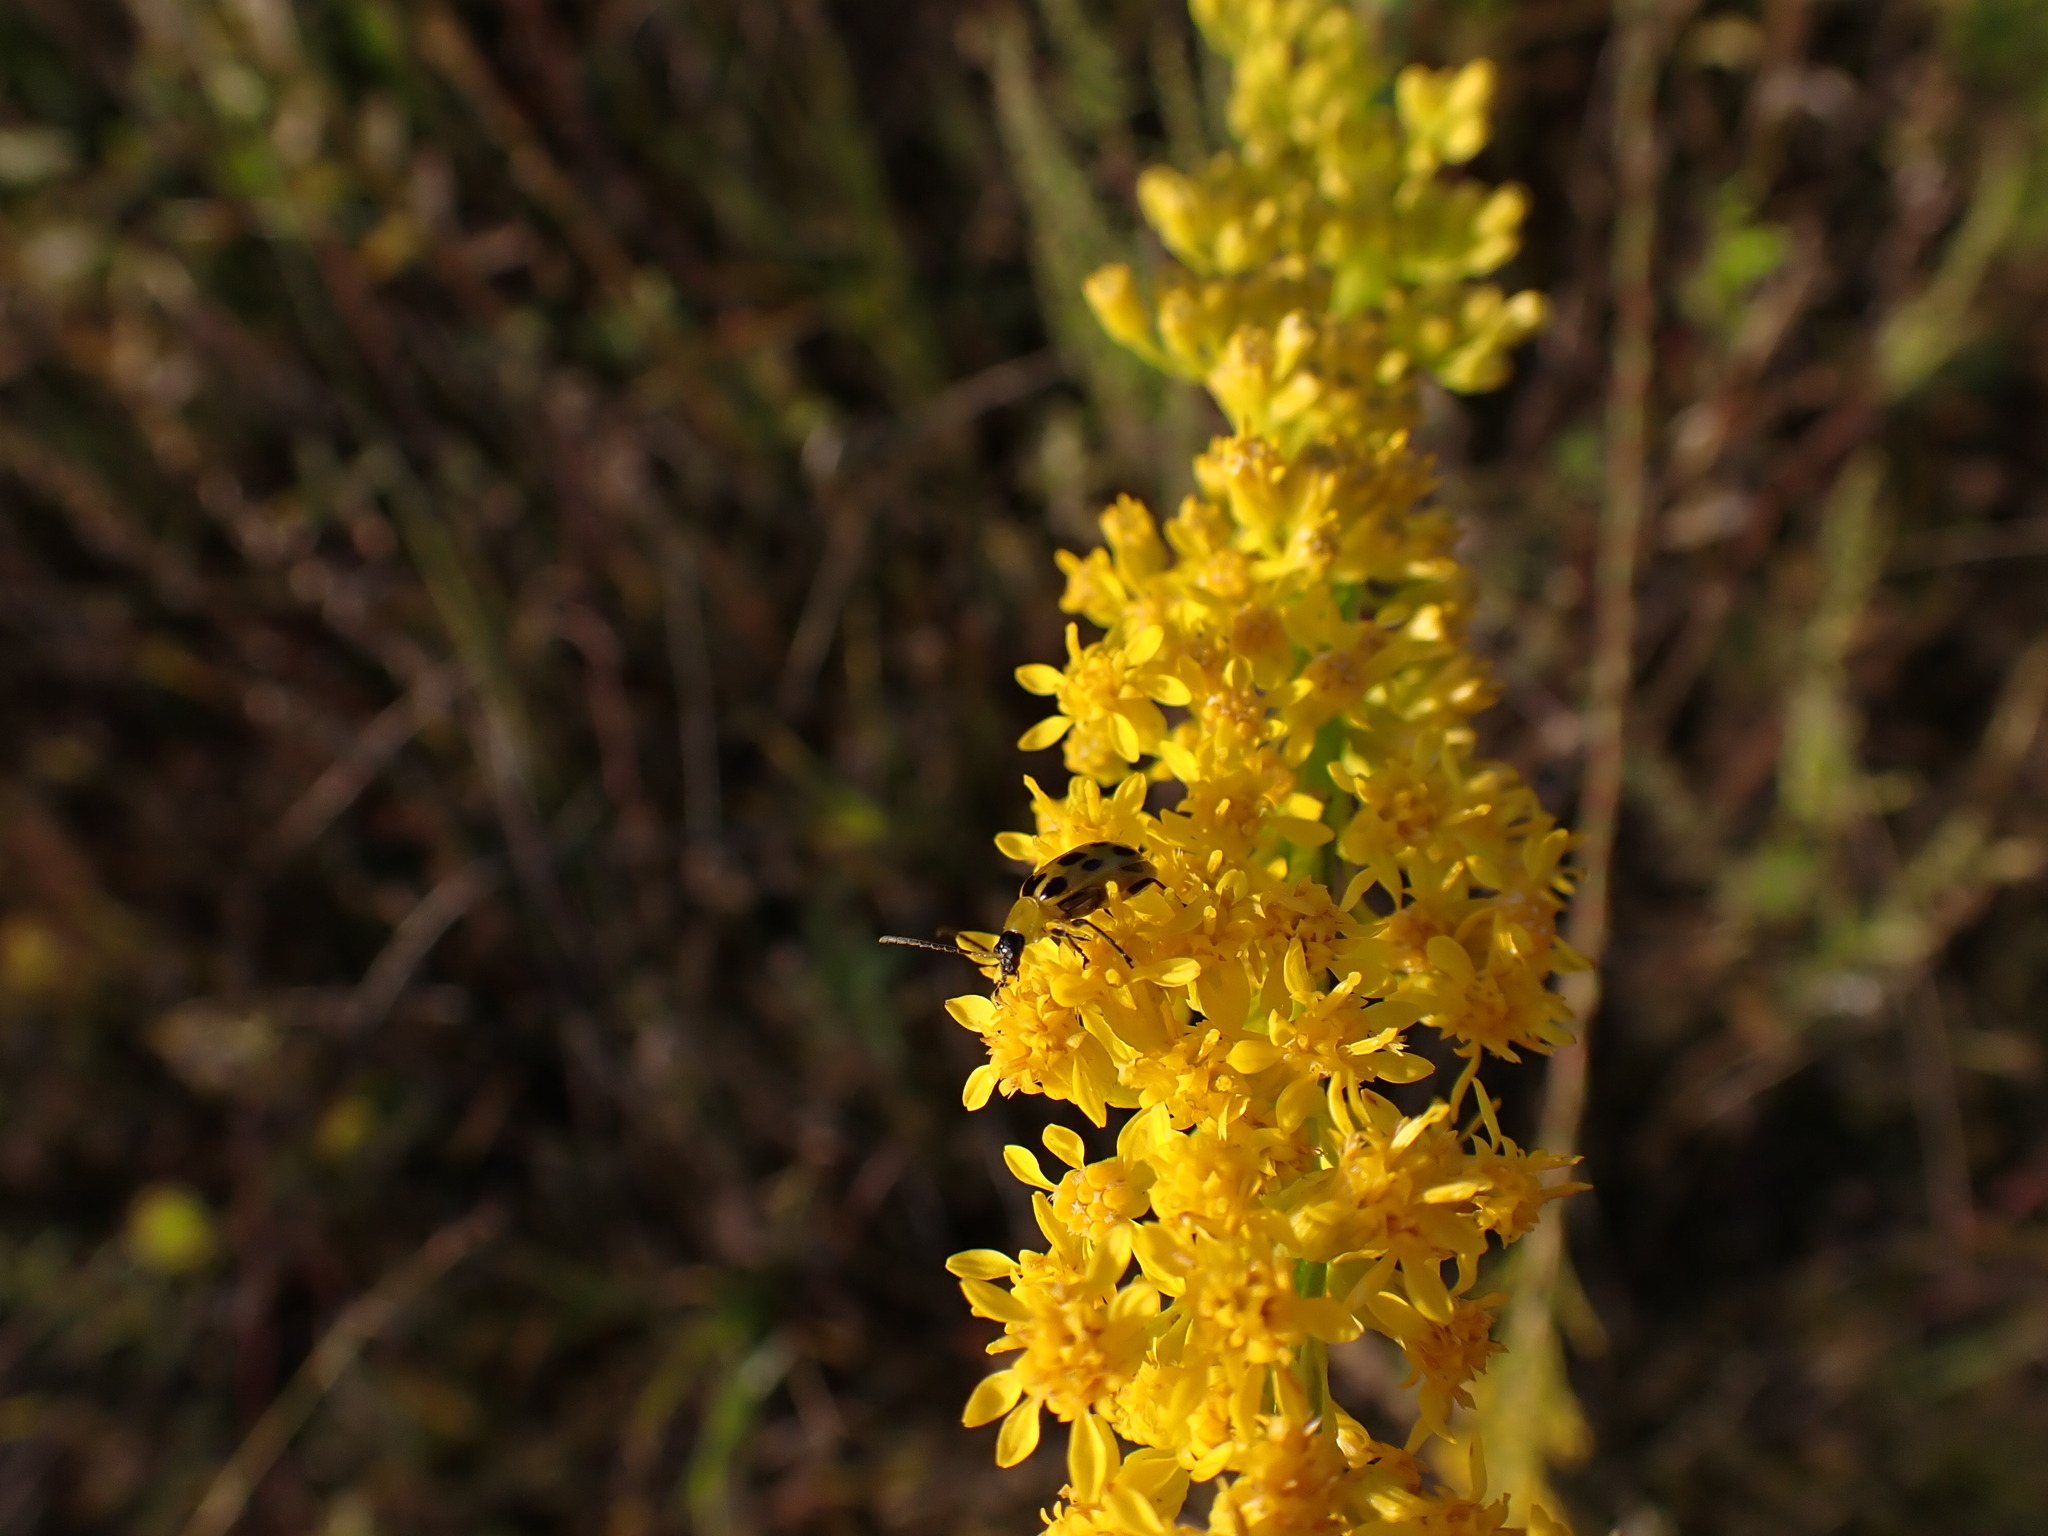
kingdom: Animalia
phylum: Arthropoda
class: Insecta
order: Coleoptera
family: Chrysomelidae
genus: Diabrotica
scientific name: Diabrotica undecimpunctata
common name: Spotted cucumber beetle
